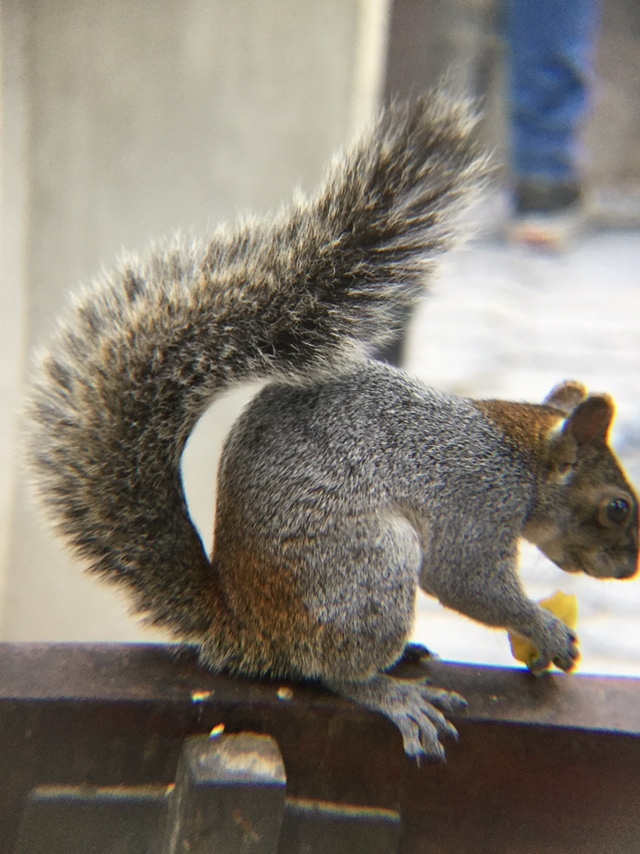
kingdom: Animalia
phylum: Chordata
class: Mammalia
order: Rodentia
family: Sciuridae
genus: Sciurus
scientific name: Sciurus aureogaster
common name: Red-bellied squirrel
